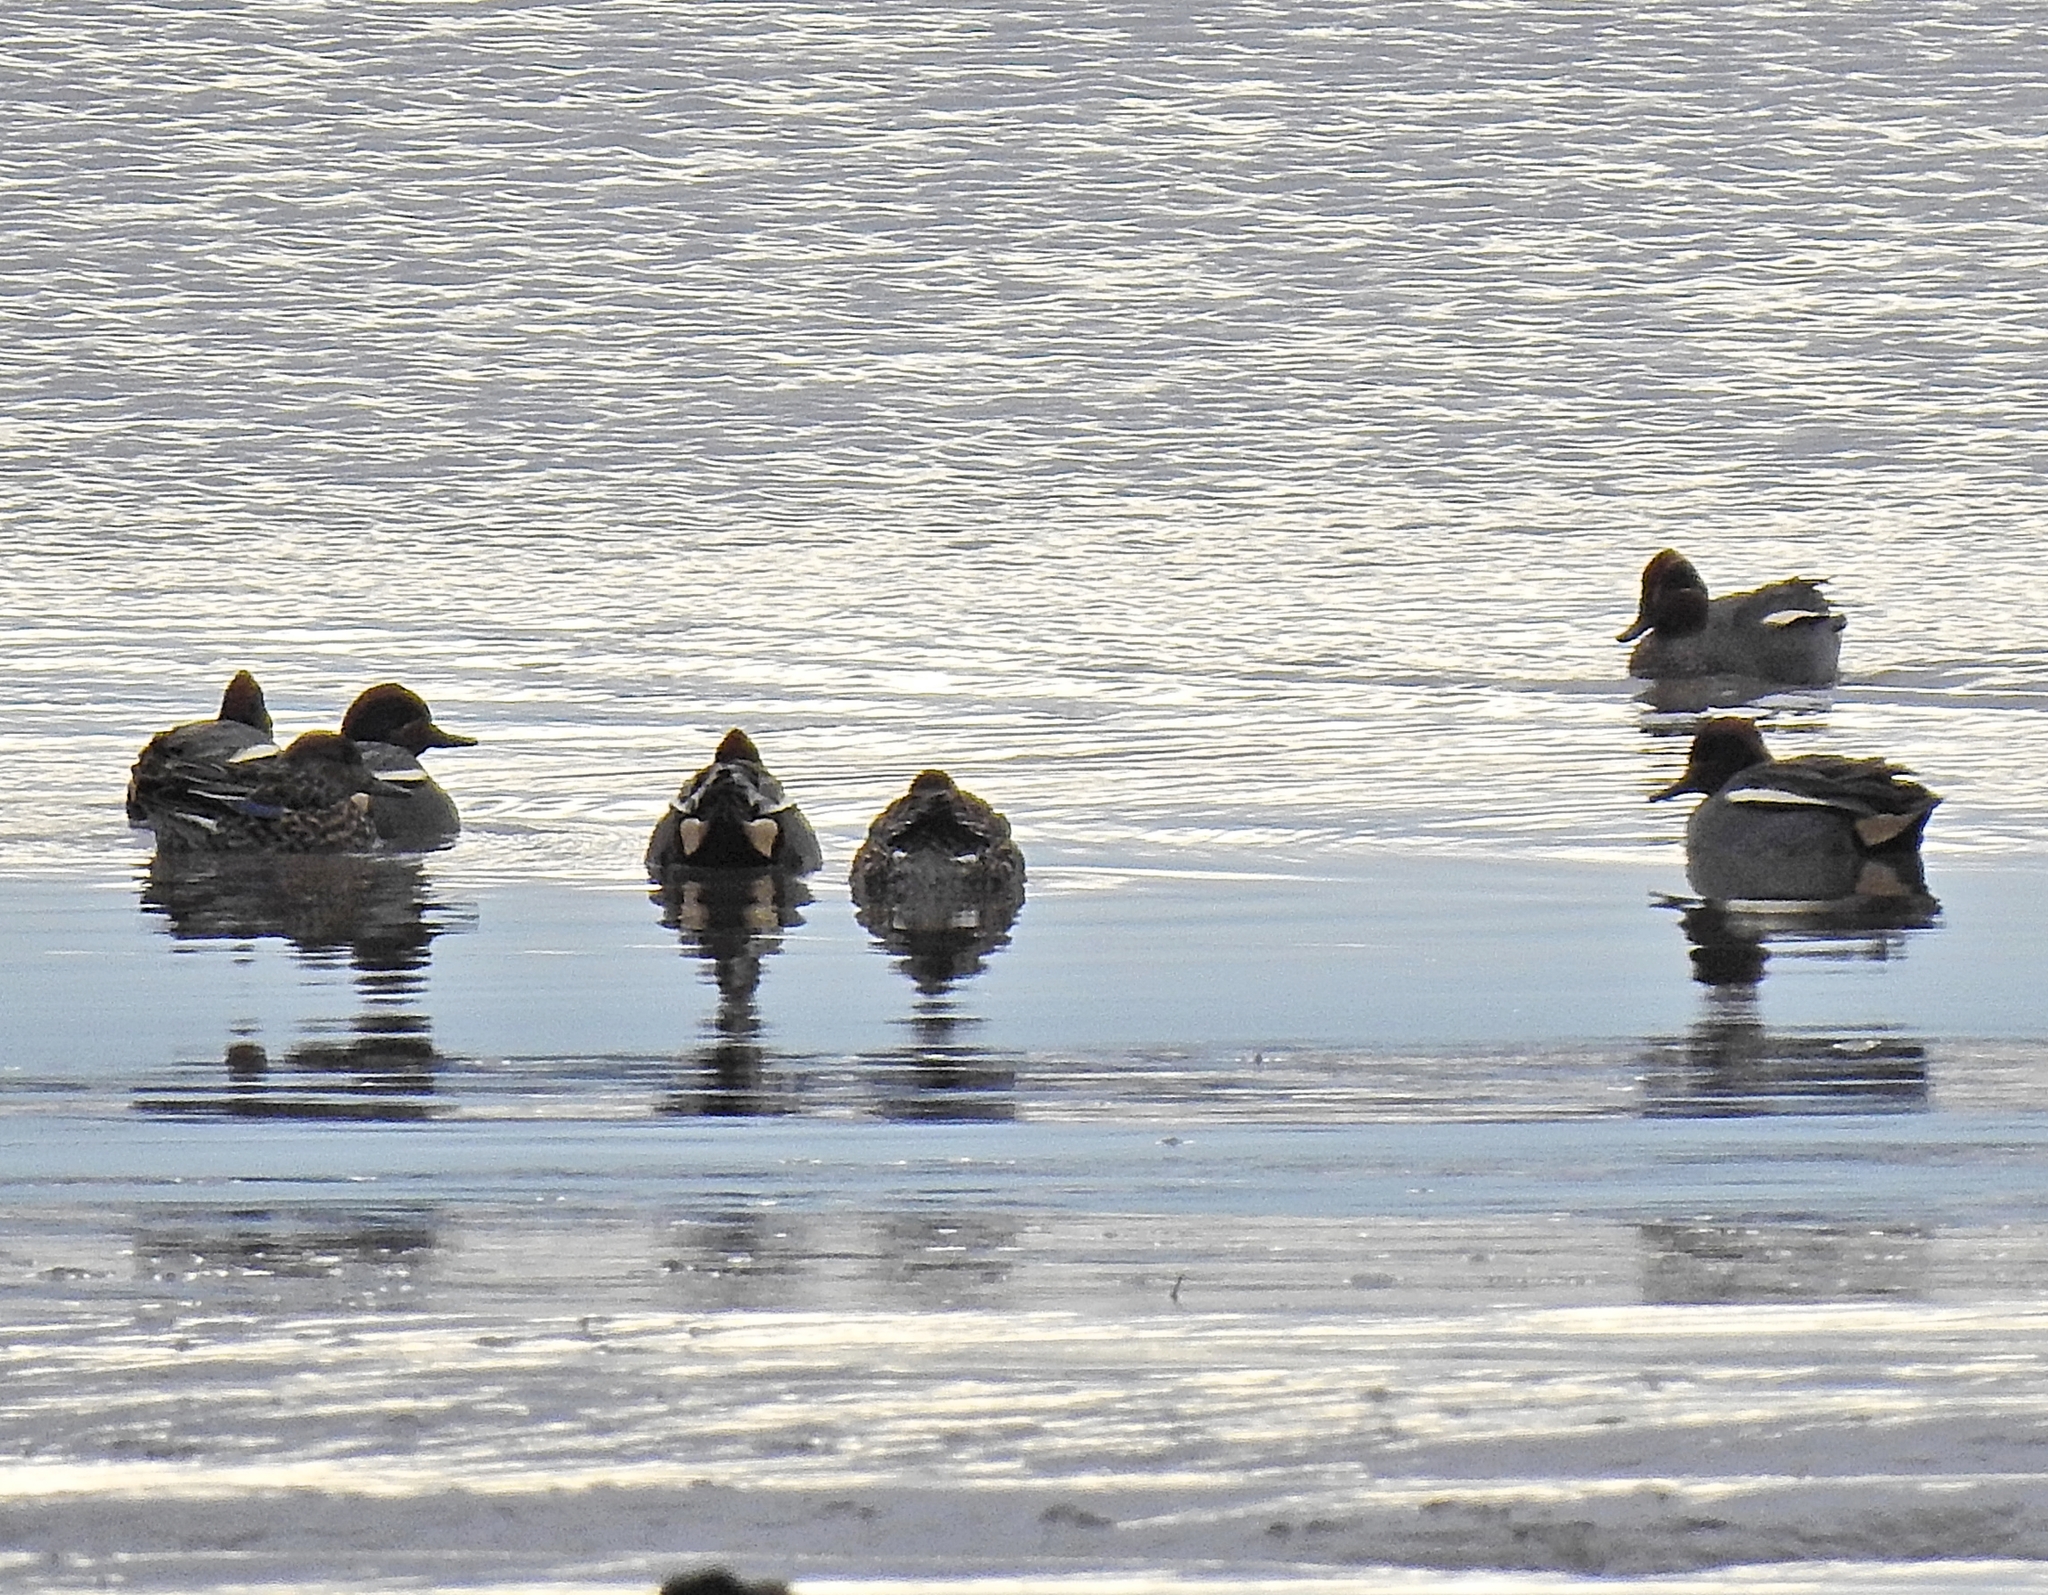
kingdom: Animalia
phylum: Chordata
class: Aves
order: Anseriformes
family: Anatidae
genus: Anas
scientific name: Anas crecca
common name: Eurasian teal
